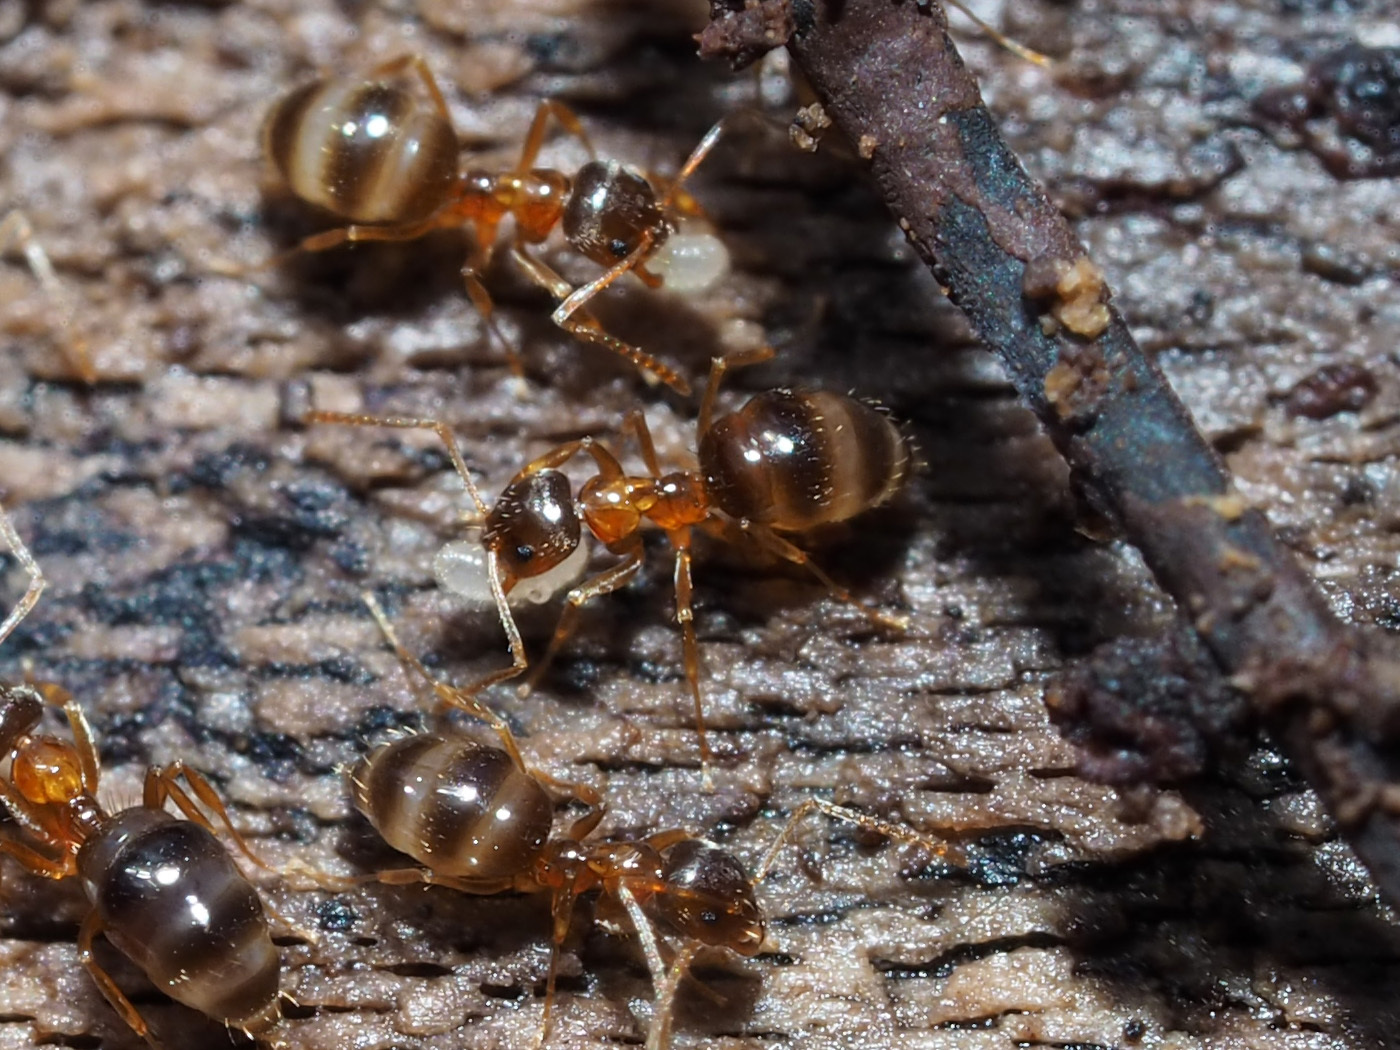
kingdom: Animalia
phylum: Arthropoda
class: Insecta
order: Hymenoptera
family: Formicidae
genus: Paratrechina
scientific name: Paratrechina flavipes
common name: Eastern asian formicine ant
